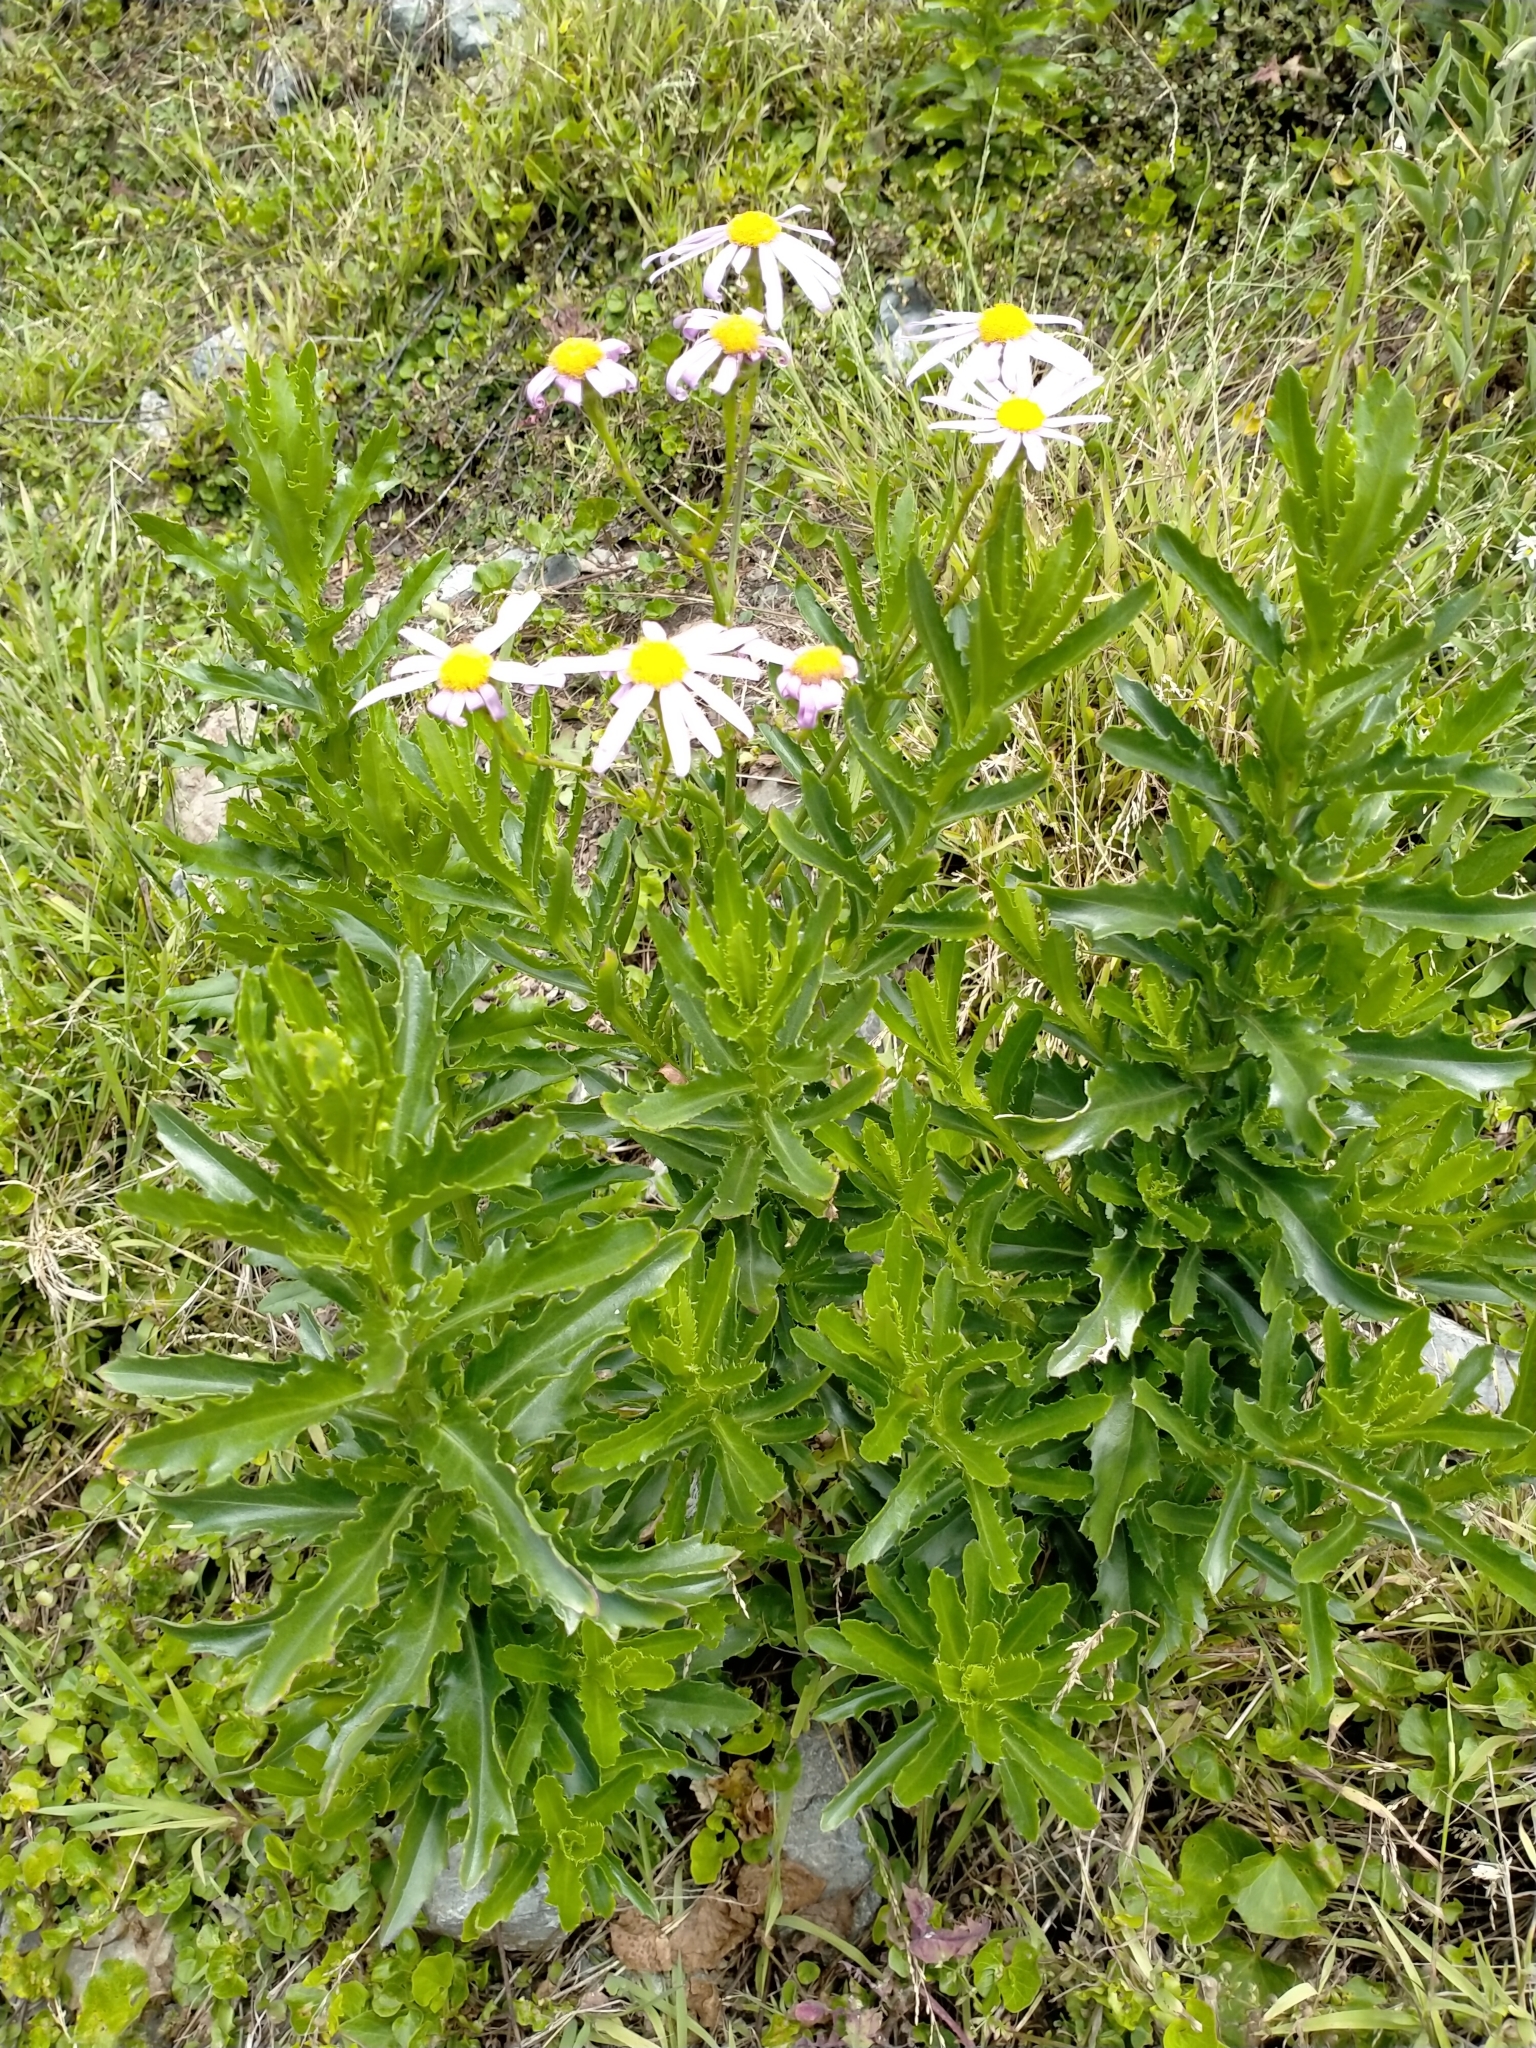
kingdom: Plantae
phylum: Tracheophyta
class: Magnoliopsida
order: Asterales
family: Asteraceae
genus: Senecio
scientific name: Senecio glastifolius
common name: Woad-leaved ragwort
